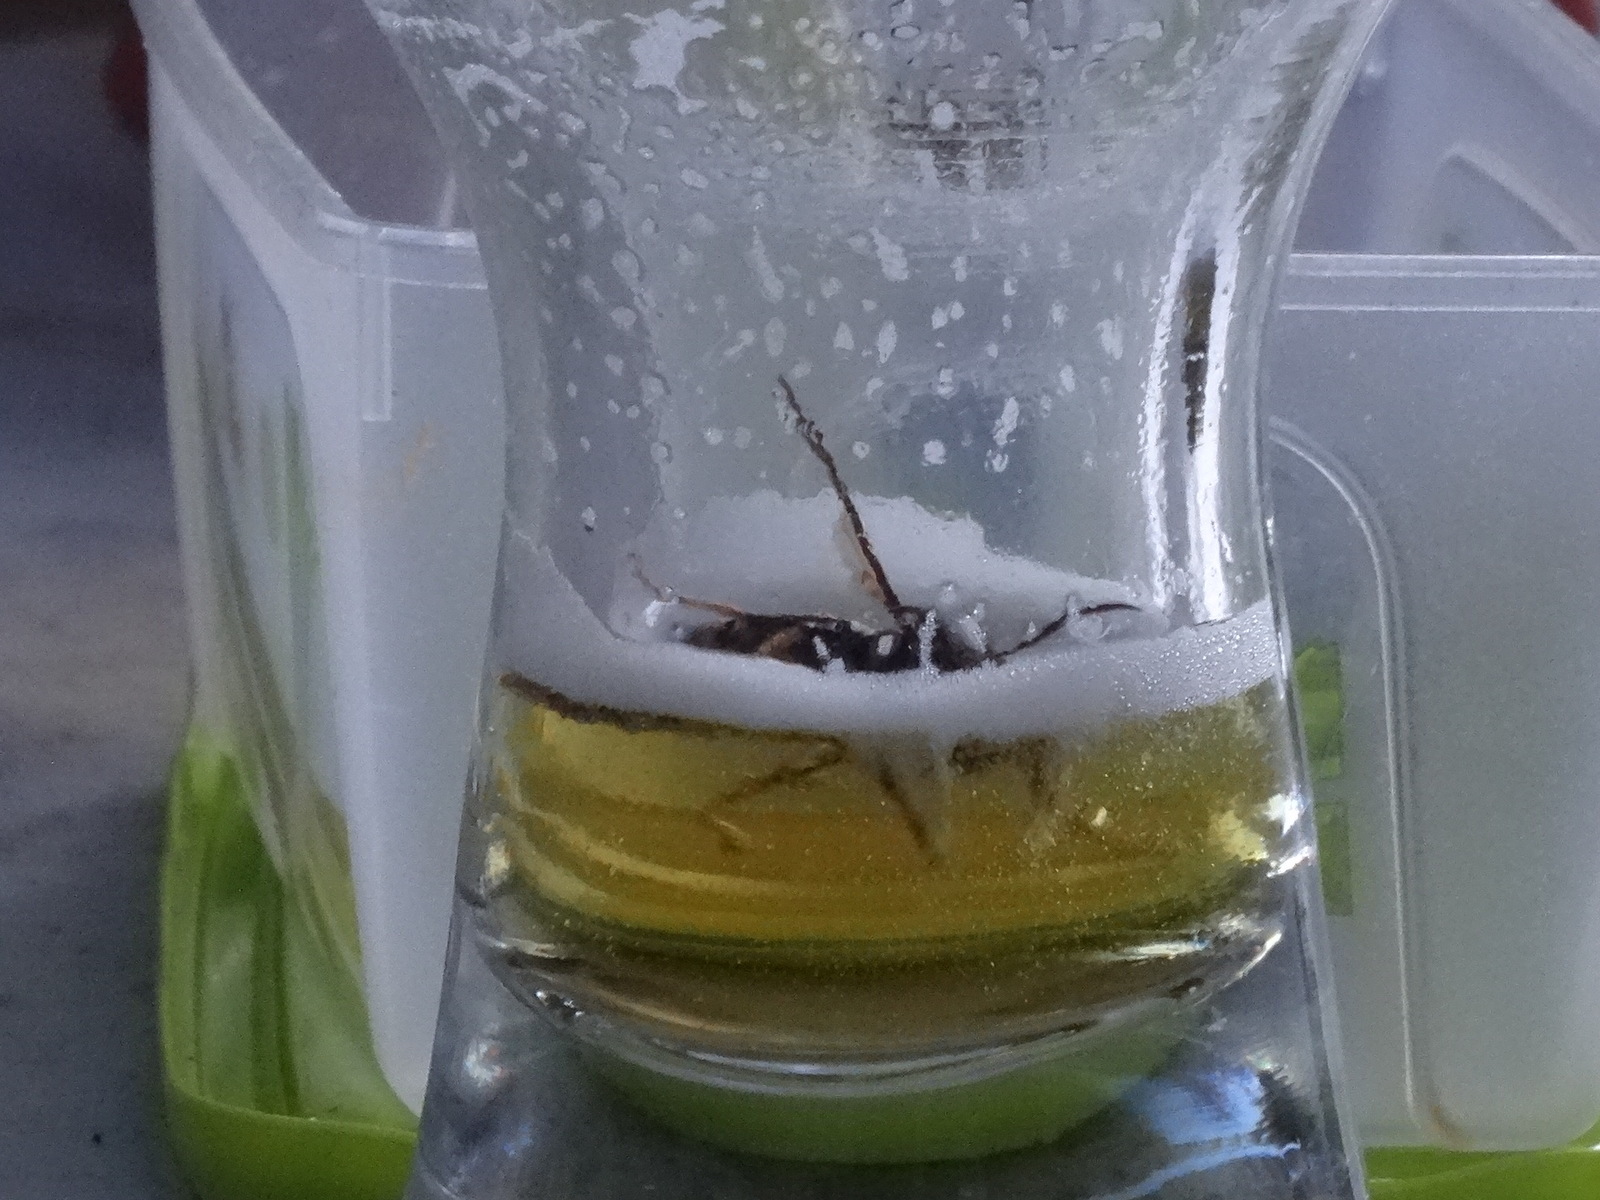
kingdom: Animalia
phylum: Arthropoda
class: Insecta
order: Hymenoptera
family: Vespidae
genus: Vespa
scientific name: Vespa velutina
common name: Asian hornet
